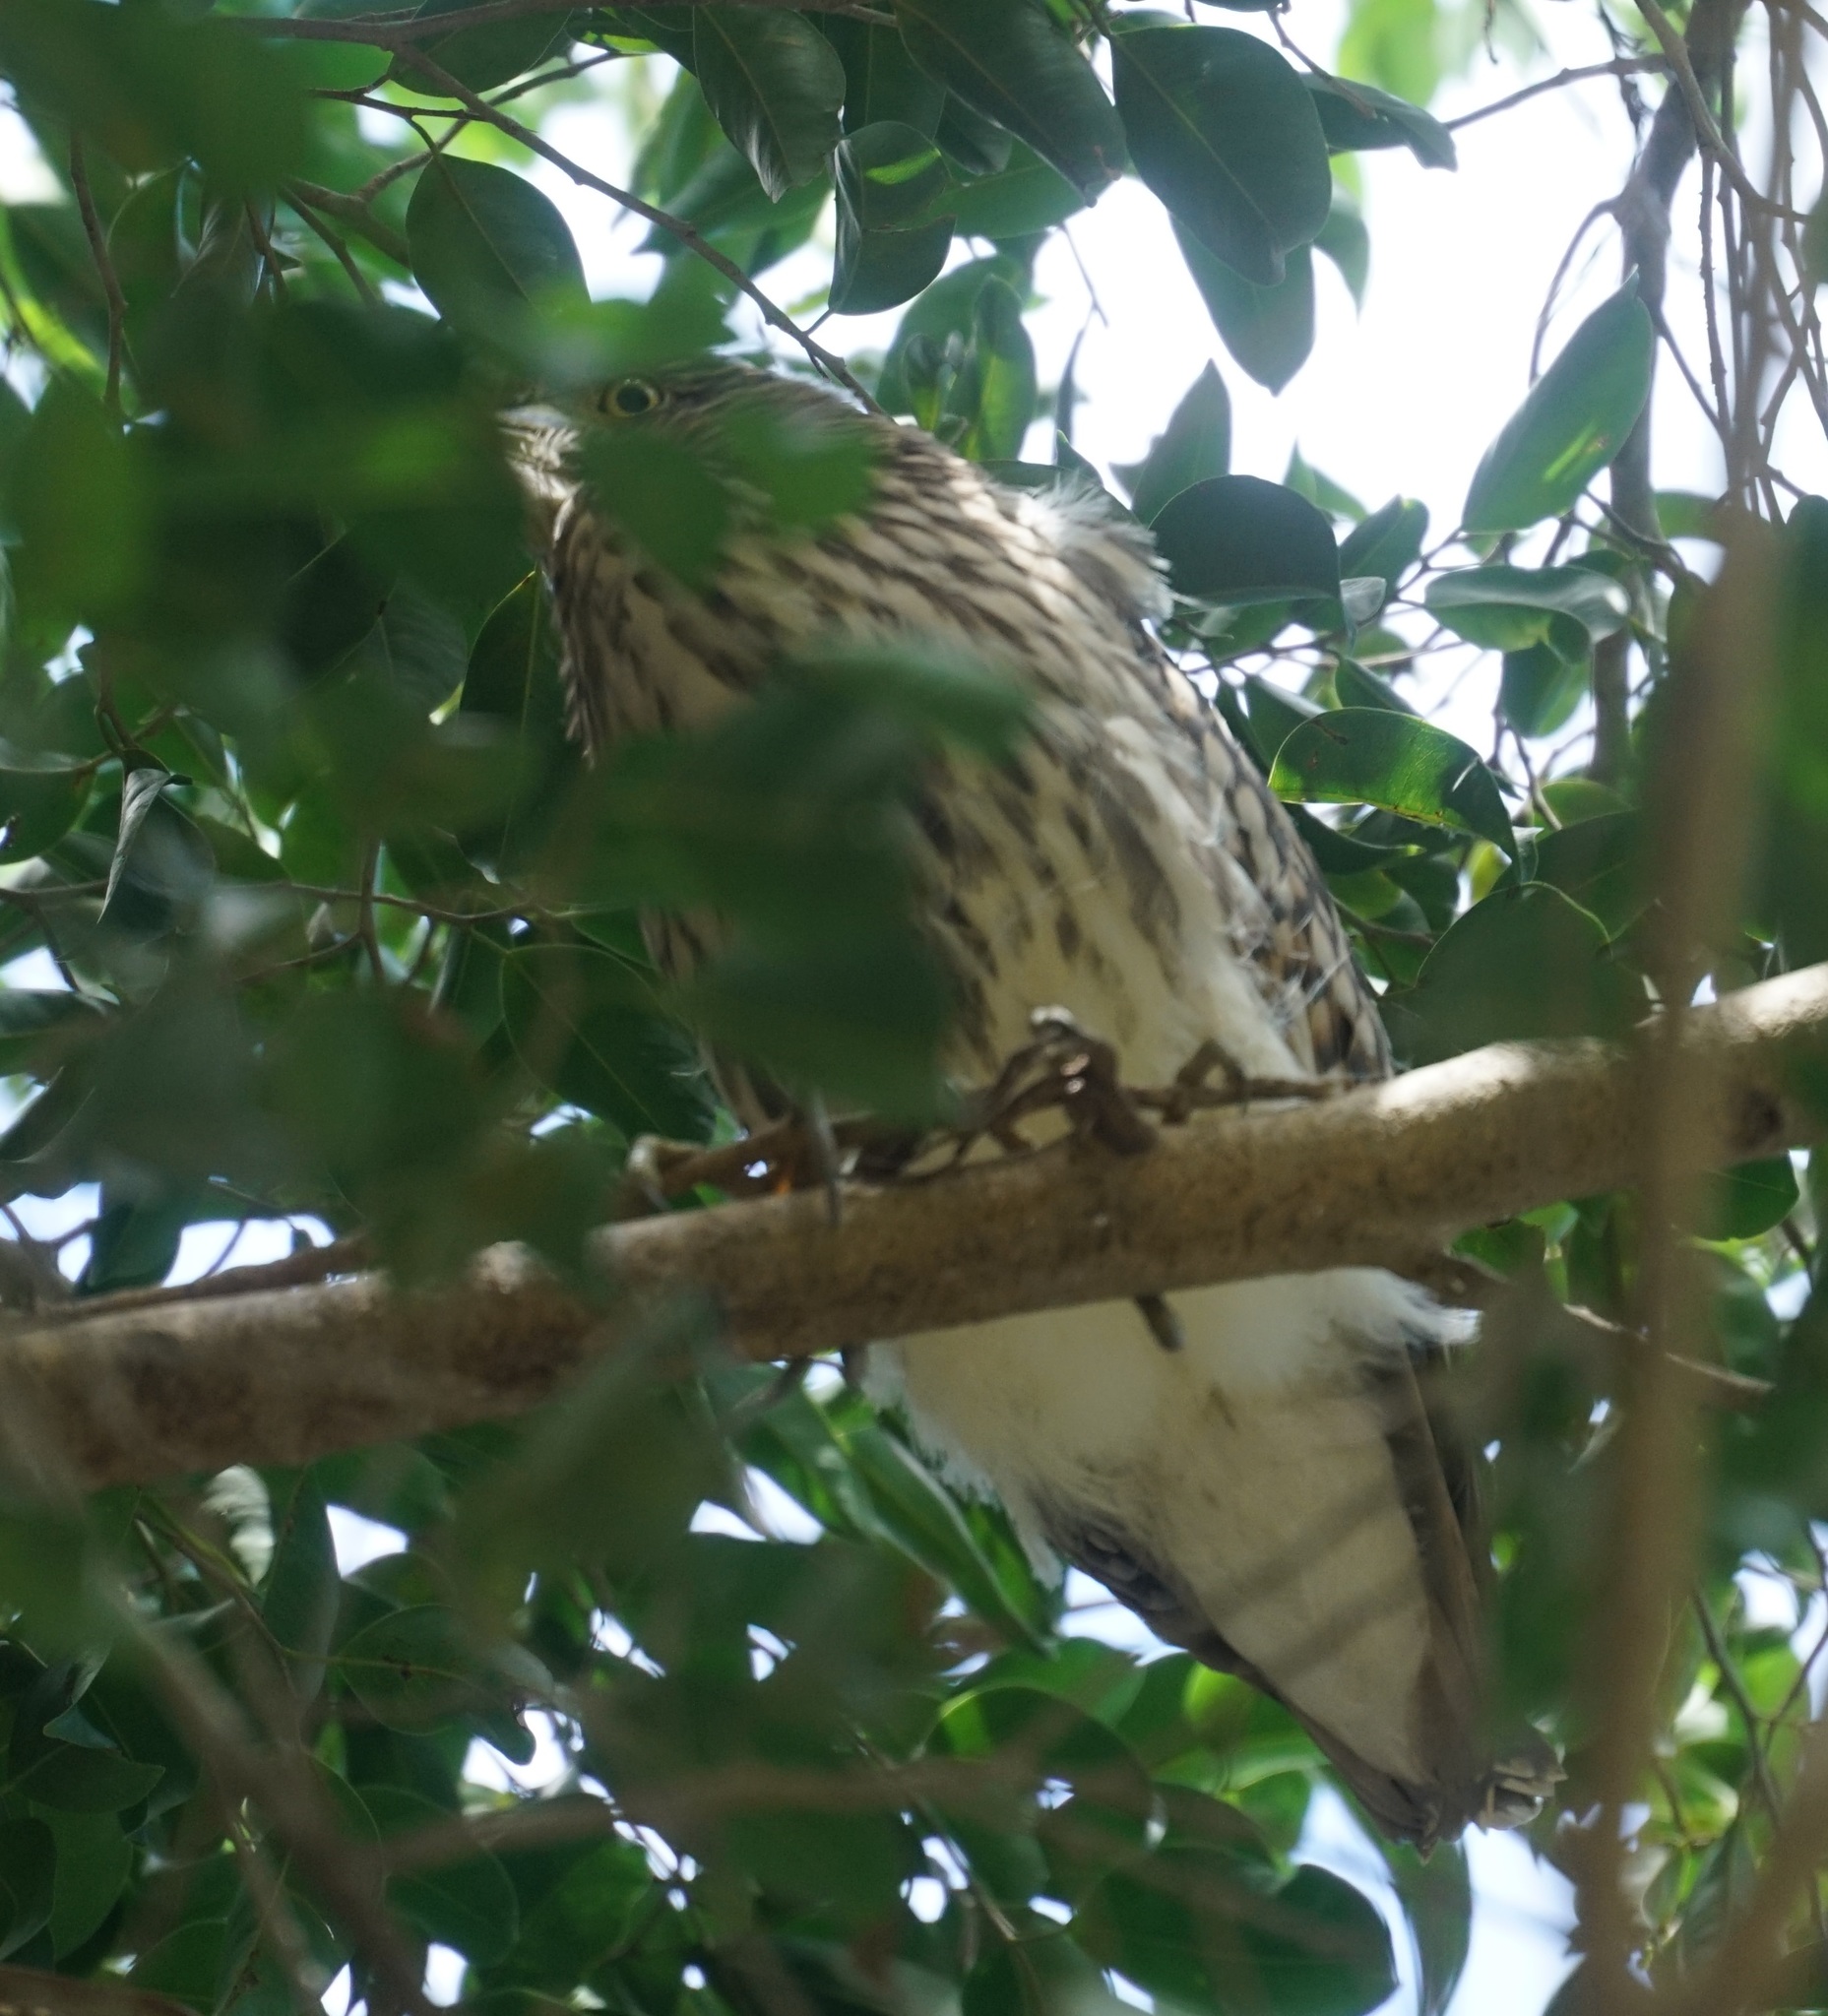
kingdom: Animalia
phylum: Chordata
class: Aves
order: Pelecaniformes
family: Ardeidae
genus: Nycticorax
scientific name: Nycticorax caledonicus
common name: Rufous night-heron
